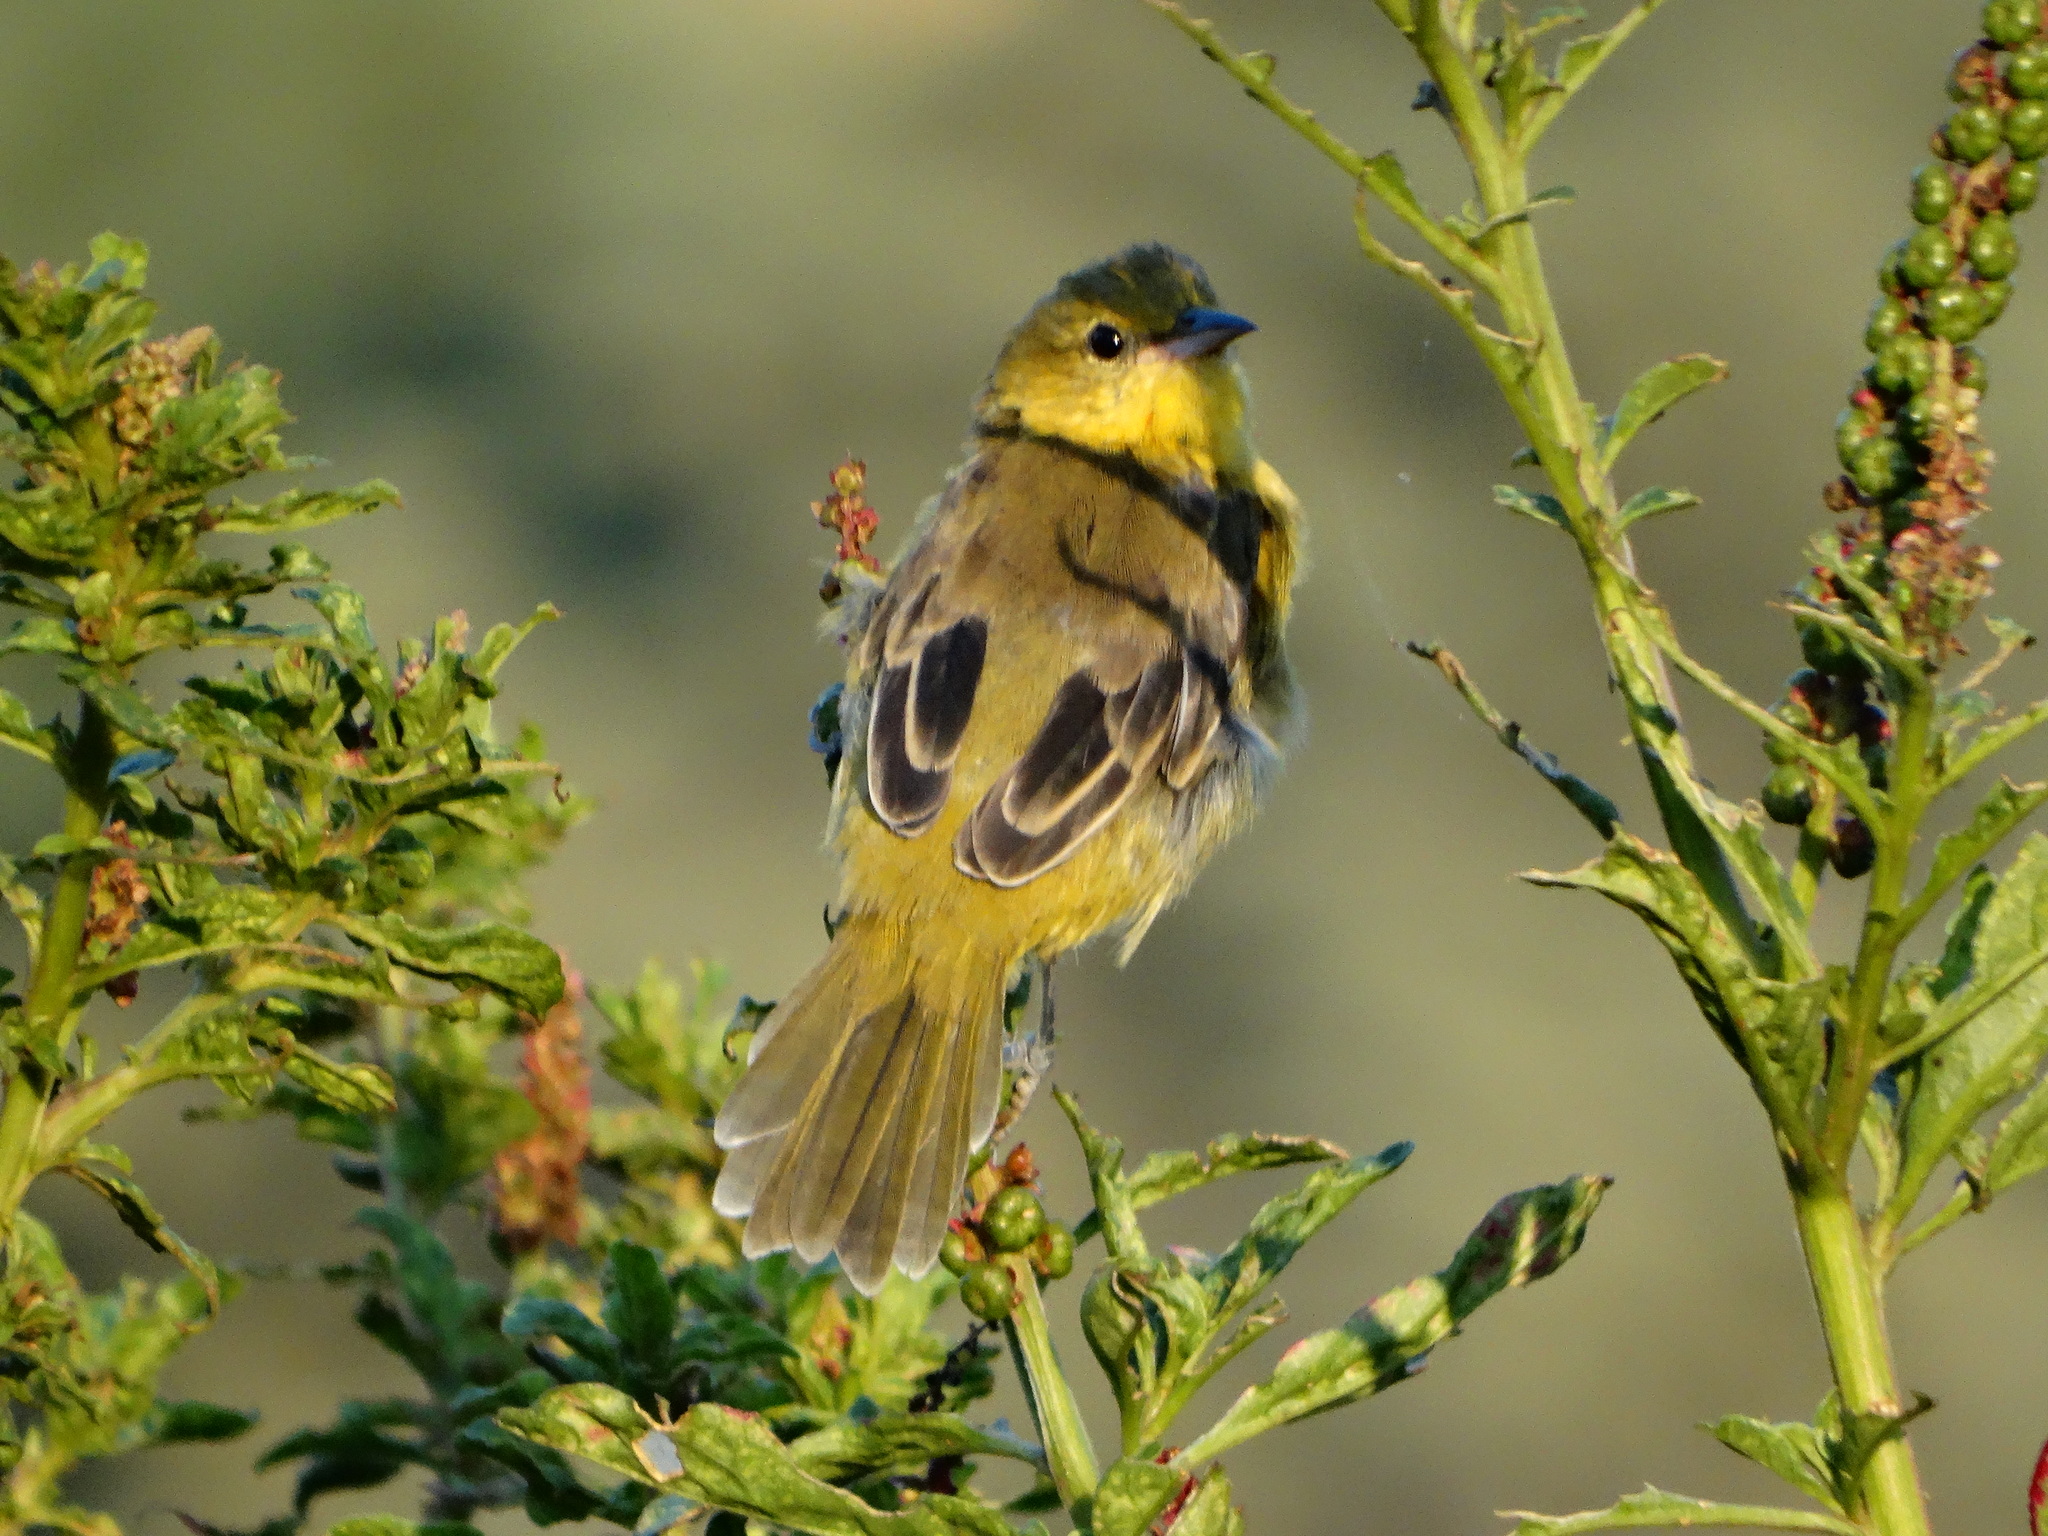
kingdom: Animalia
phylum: Chordata
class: Aves
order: Passeriformes
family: Icteridae
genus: Icterus
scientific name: Icterus spurius
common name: Orchard oriole
